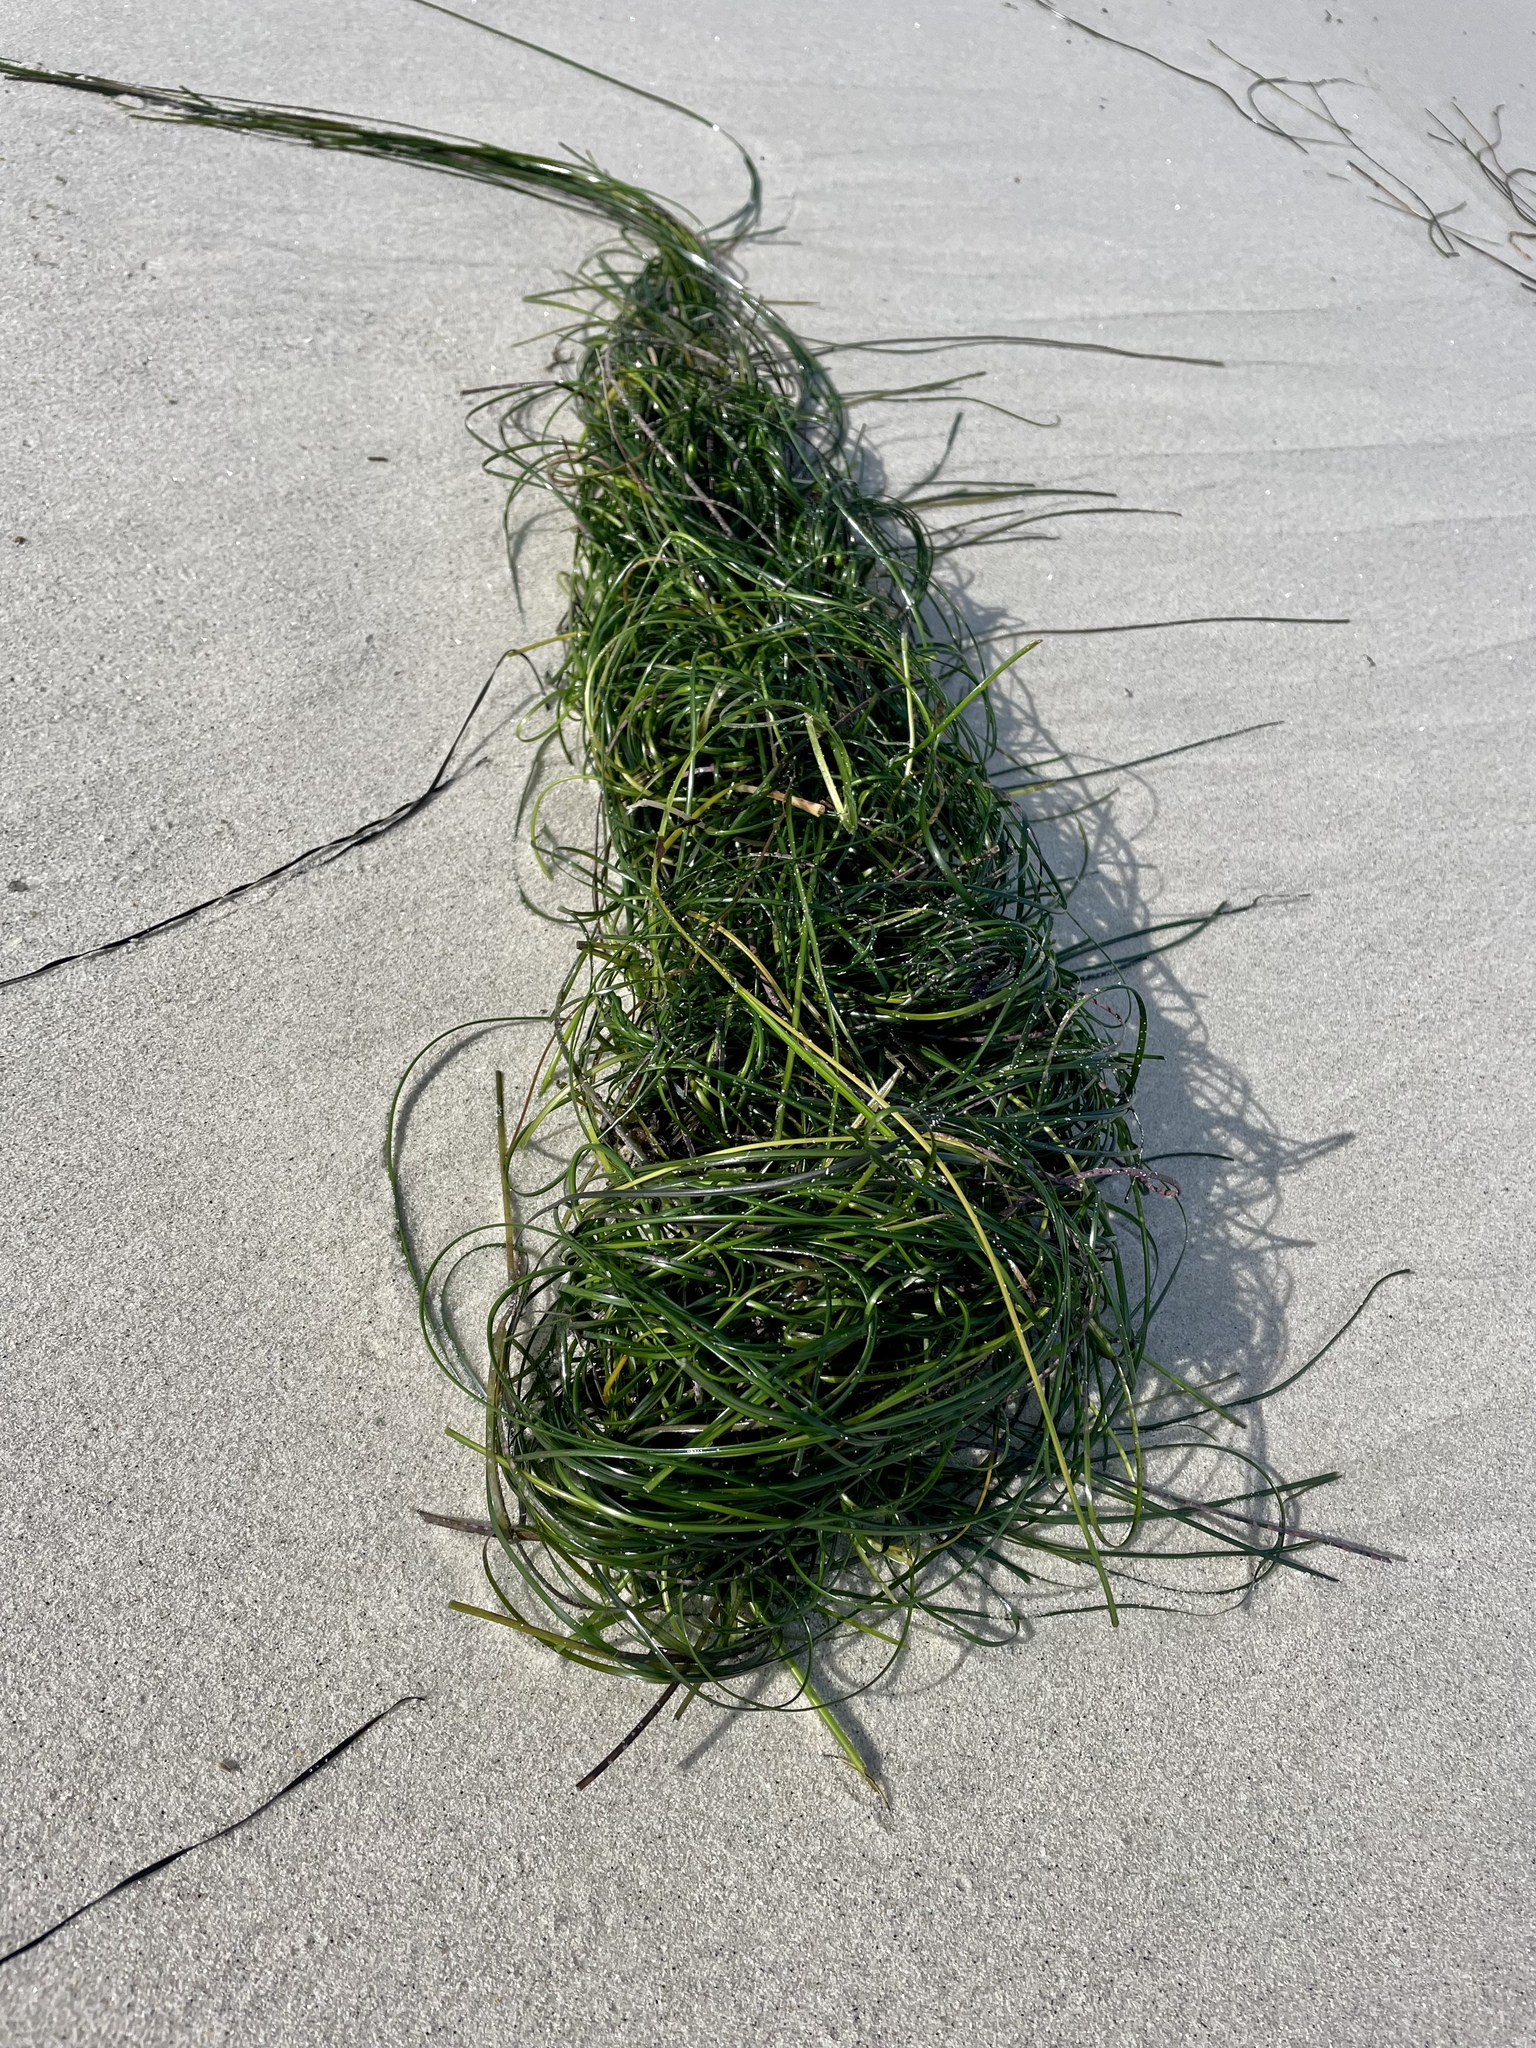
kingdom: Plantae
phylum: Tracheophyta
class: Liliopsida
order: Alismatales
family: Zosteraceae
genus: Phyllospadix
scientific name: Phyllospadix torreyi
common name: Surfgrass
